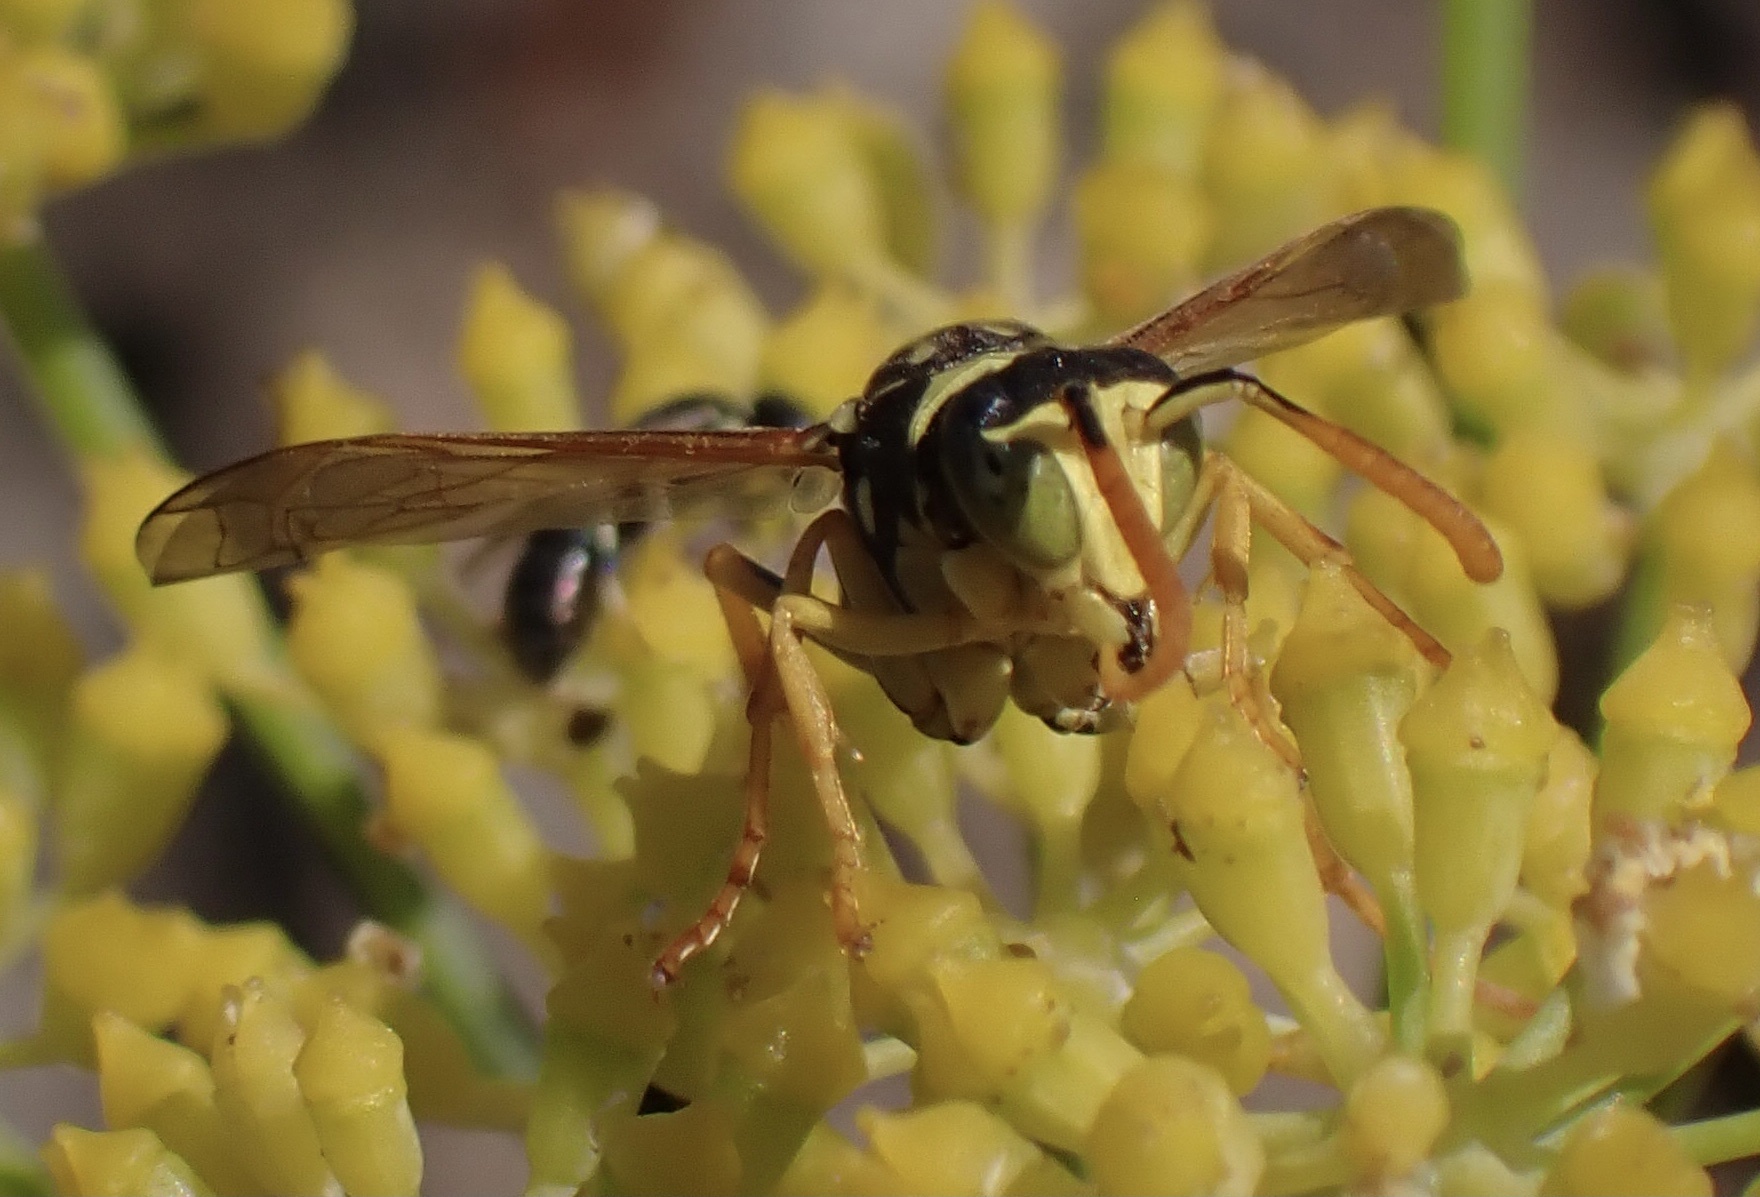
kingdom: Animalia
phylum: Arthropoda
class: Insecta
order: Hymenoptera
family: Eumenidae
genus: Polistes
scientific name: Polistes gallicus
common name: Paper wasp
